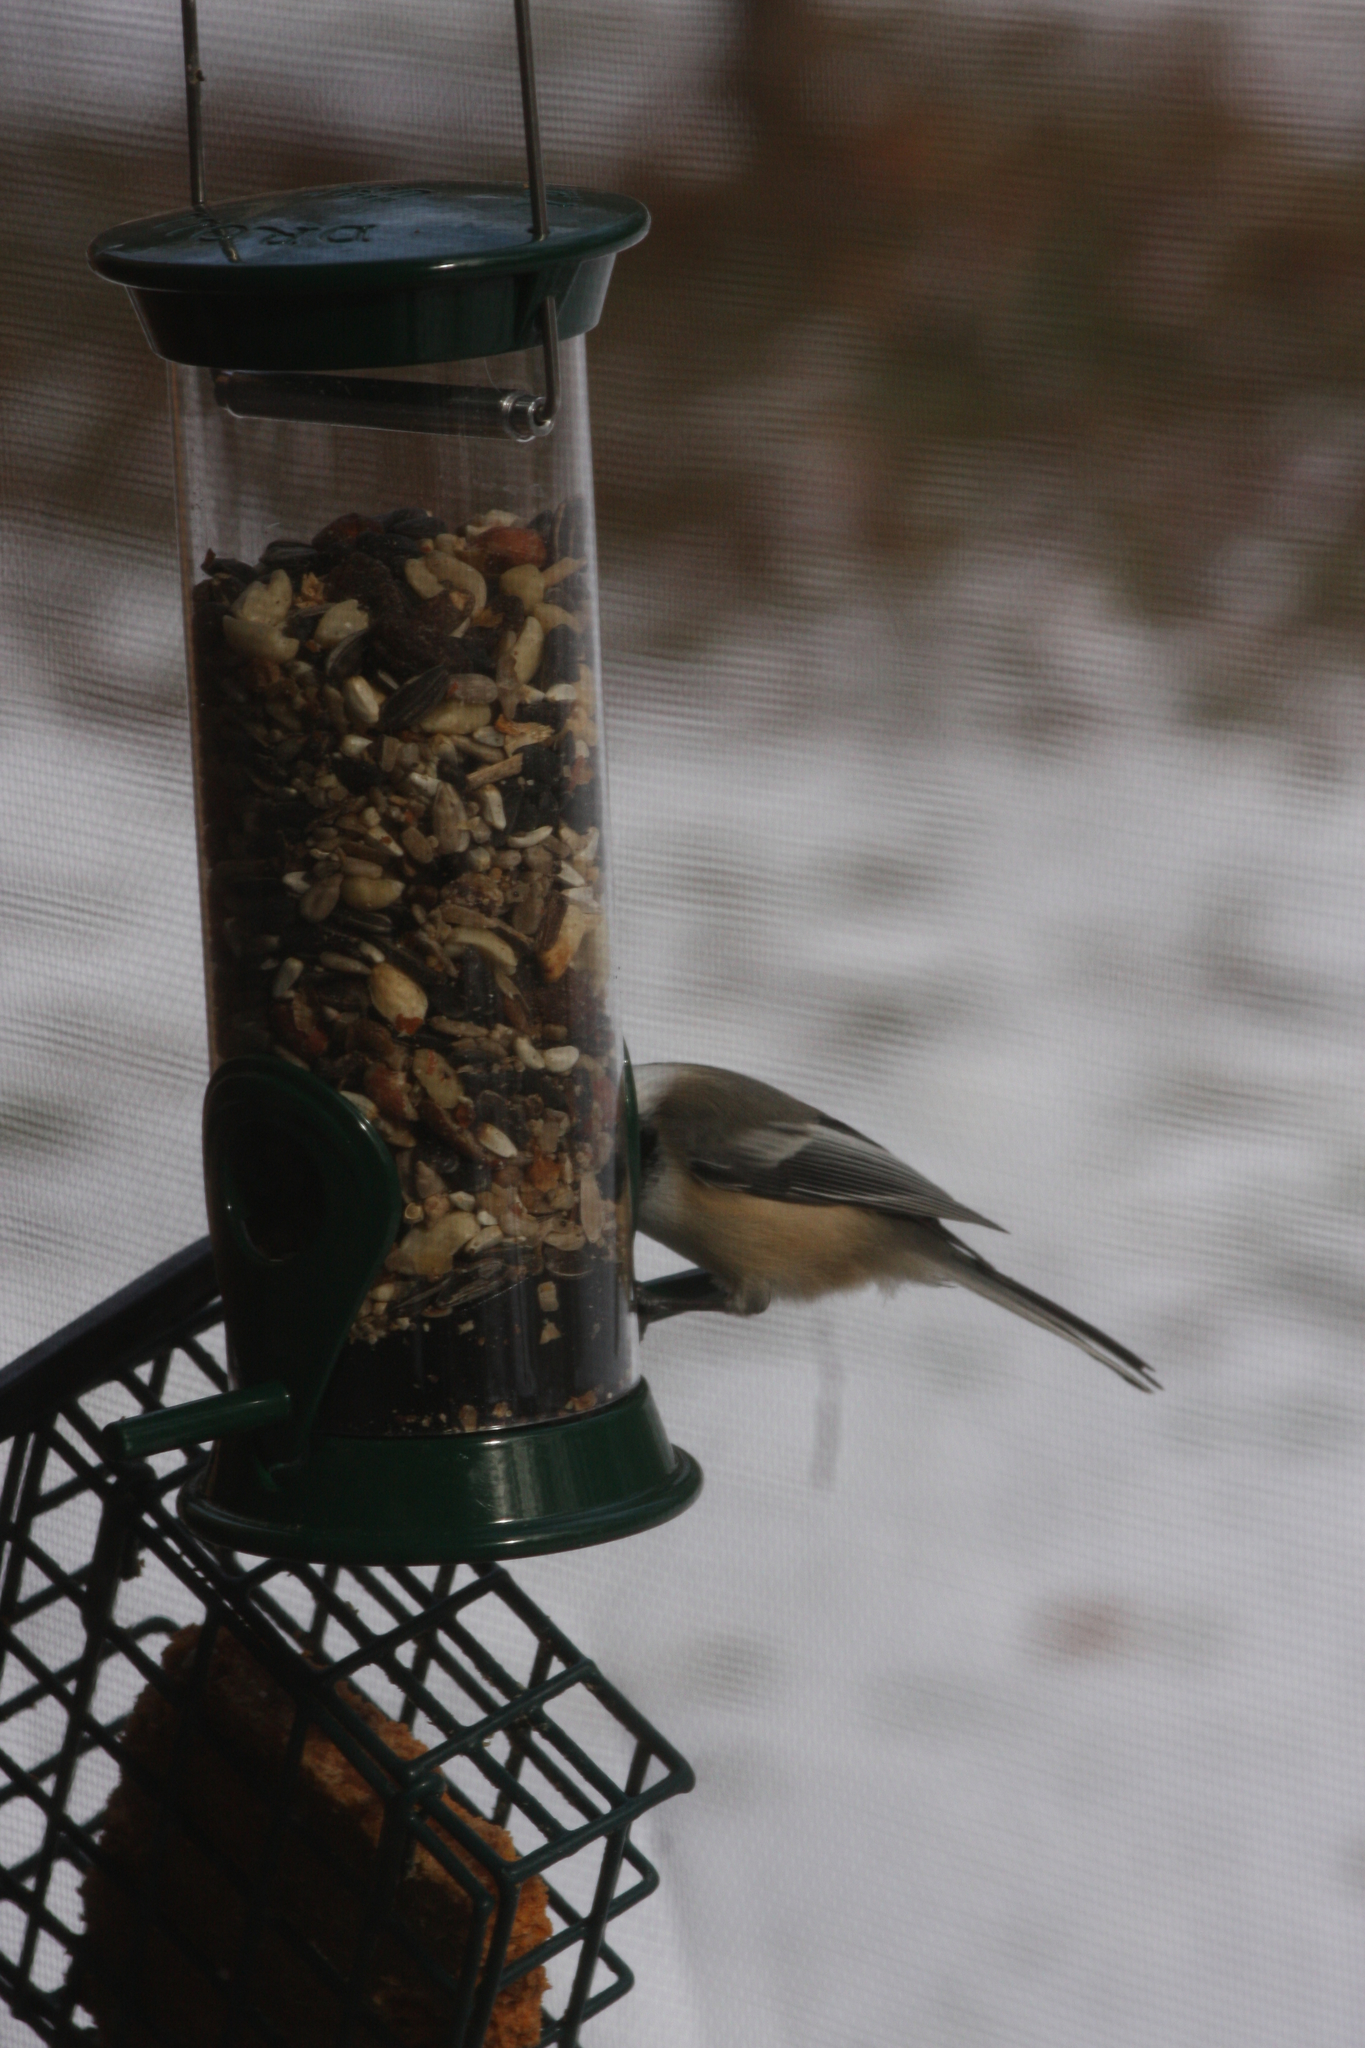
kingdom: Animalia
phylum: Chordata
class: Aves
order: Passeriformes
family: Paridae
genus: Poecile
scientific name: Poecile atricapillus
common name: Black-capped chickadee
